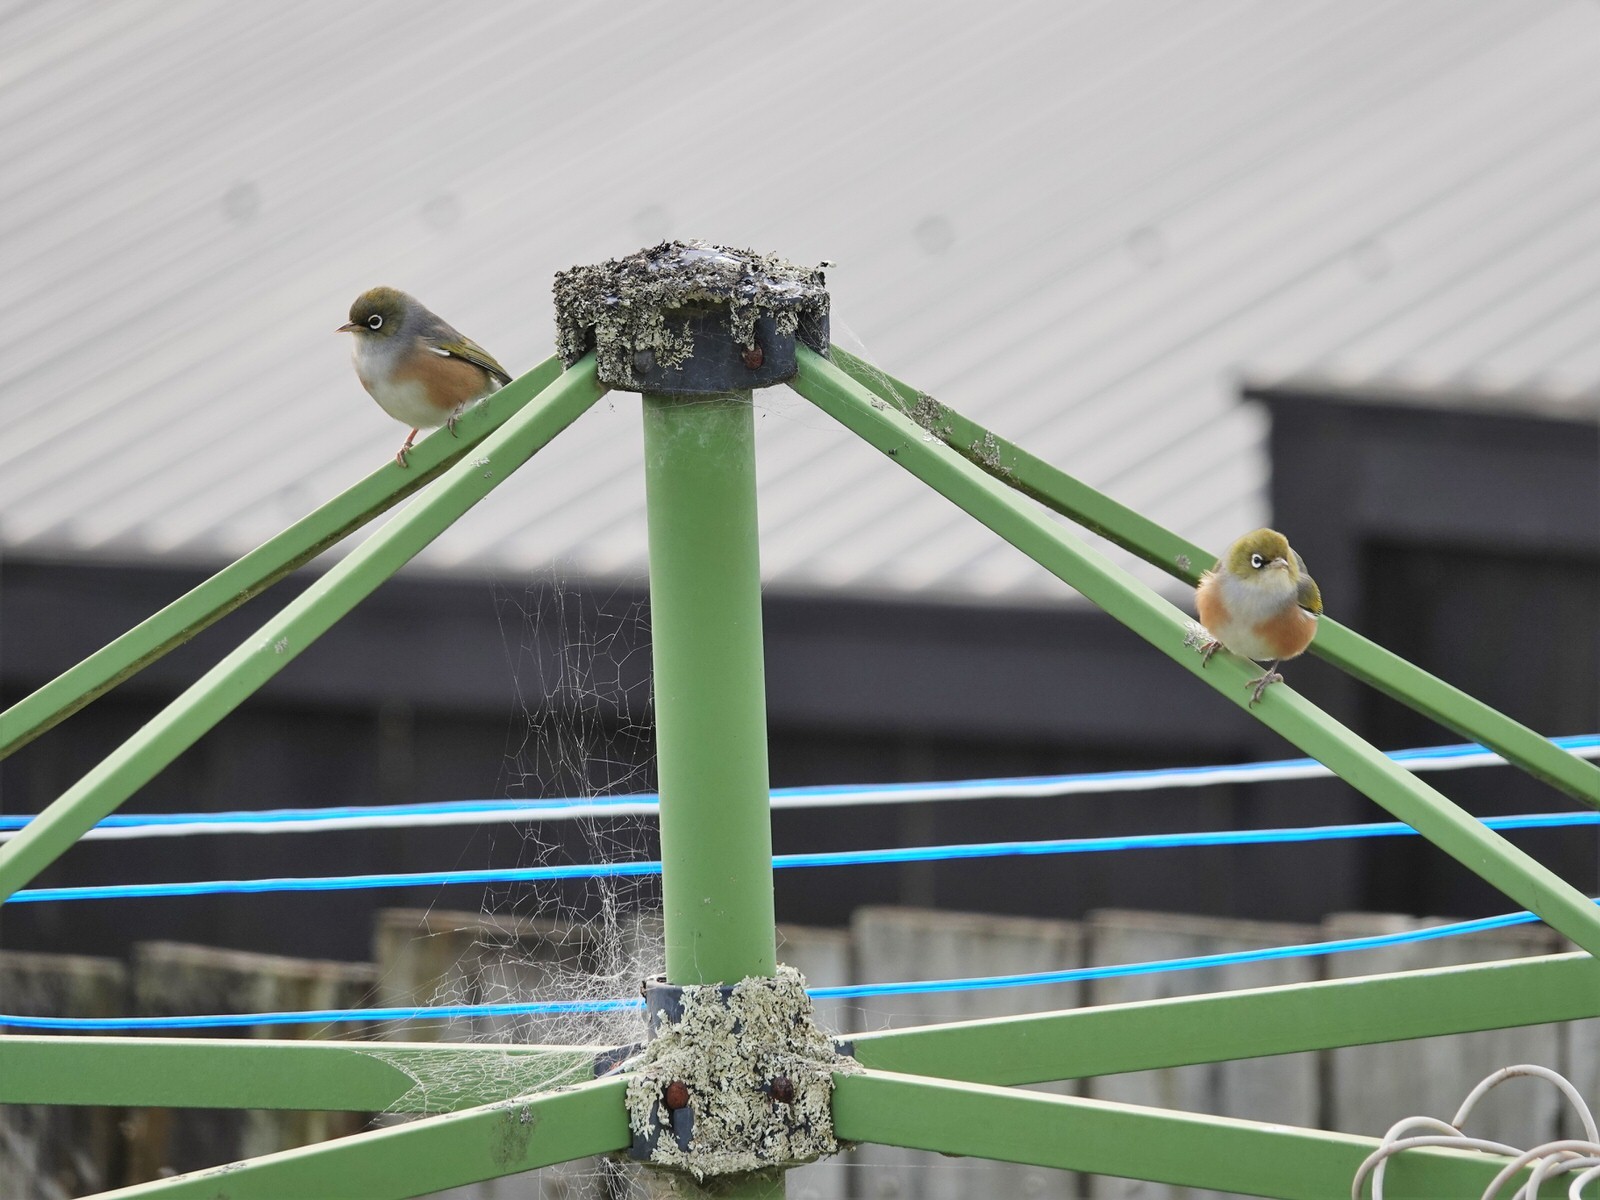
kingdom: Animalia
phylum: Chordata
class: Aves
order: Passeriformes
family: Zosteropidae
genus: Zosterops
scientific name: Zosterops lateralis
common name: Silvereye
